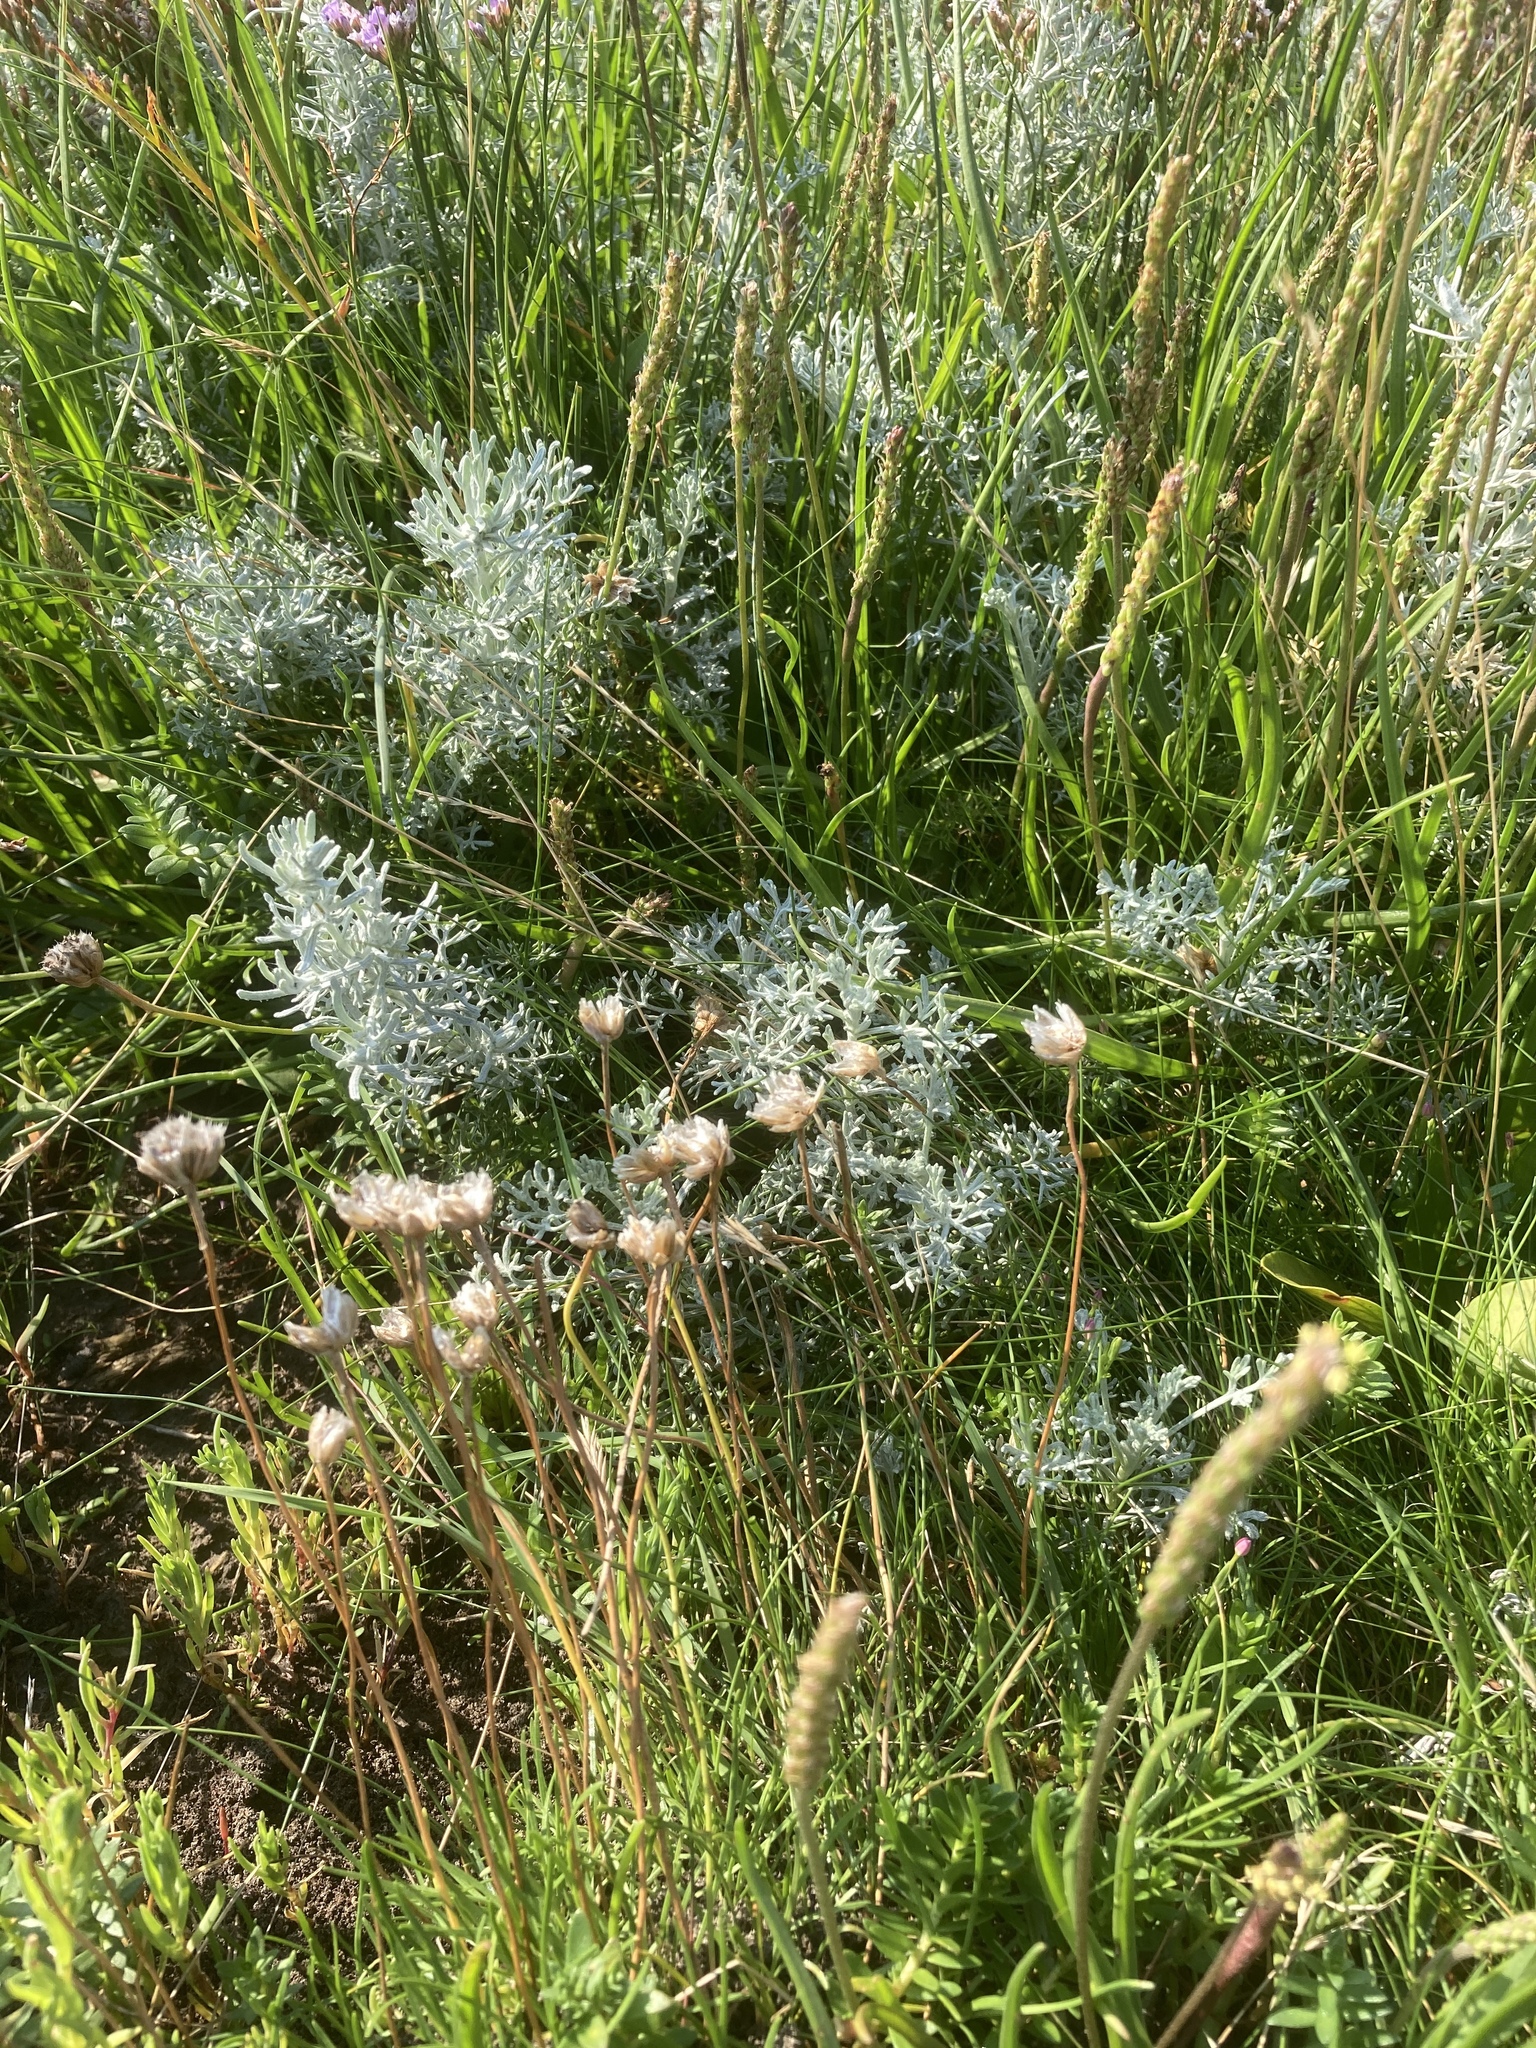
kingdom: Plantae
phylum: Tracheophyta
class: Magnoliopsida
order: Caryophyllales
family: Plumbaginaceae
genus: Armeria
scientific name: Armeria maritima
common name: Thrift
